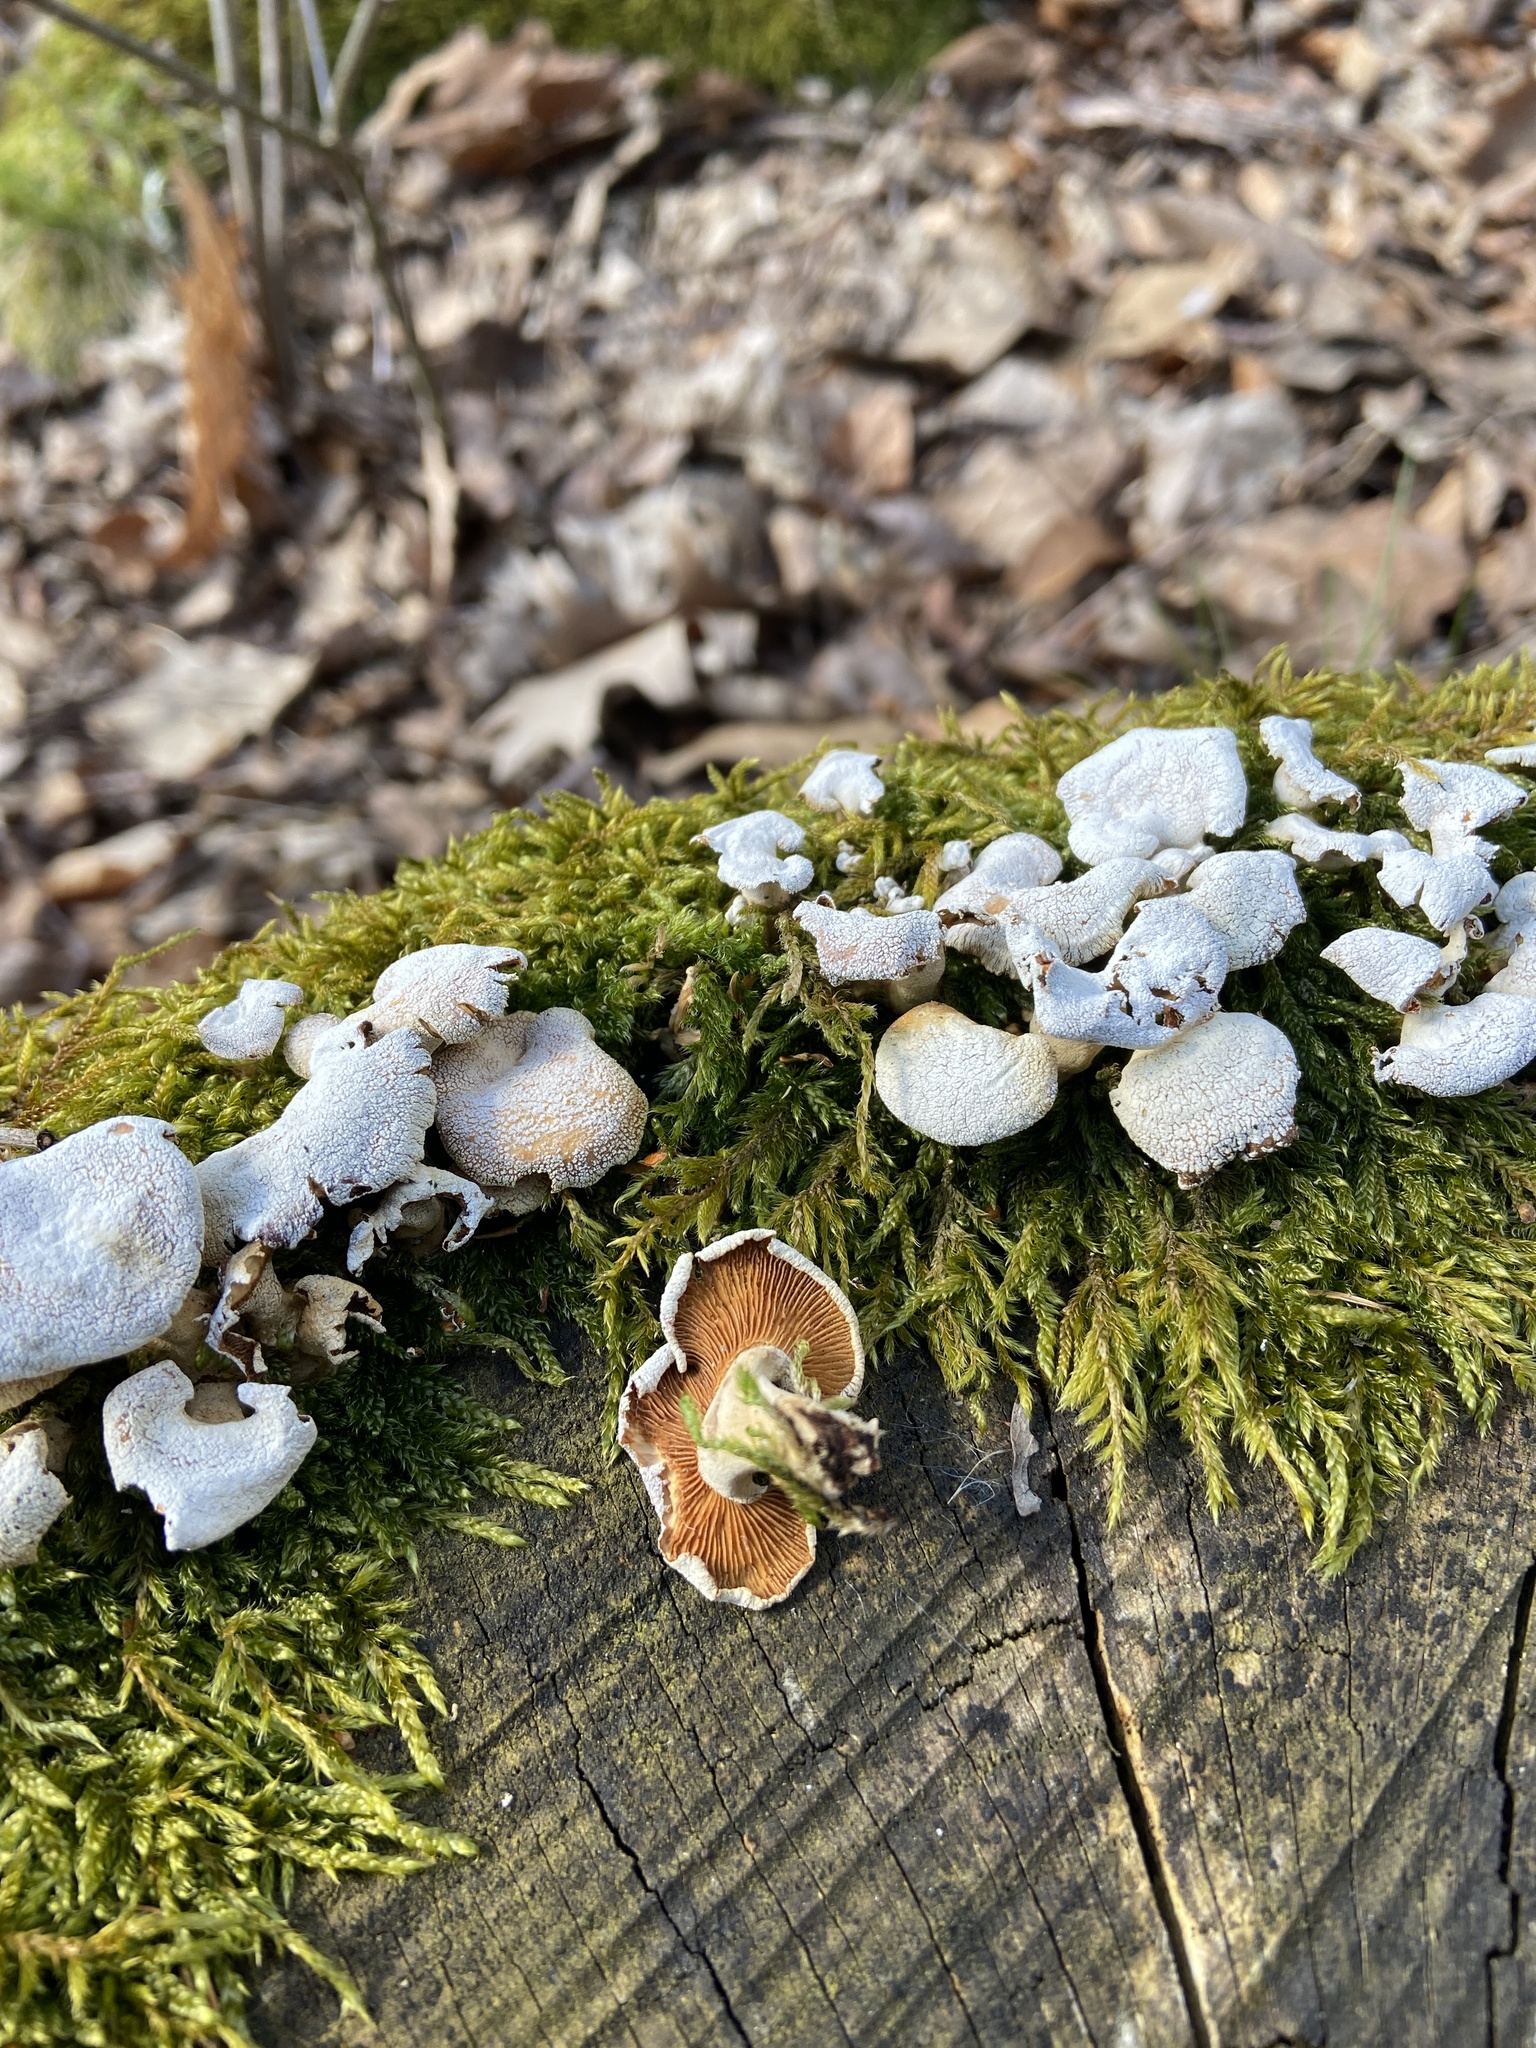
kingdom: Fungi
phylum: Basidiomycota
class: Agaricomycetes
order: Agaricales
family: Mycenaceae
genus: Panellus
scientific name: Panellus stipticus
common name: Bitter oysterling
